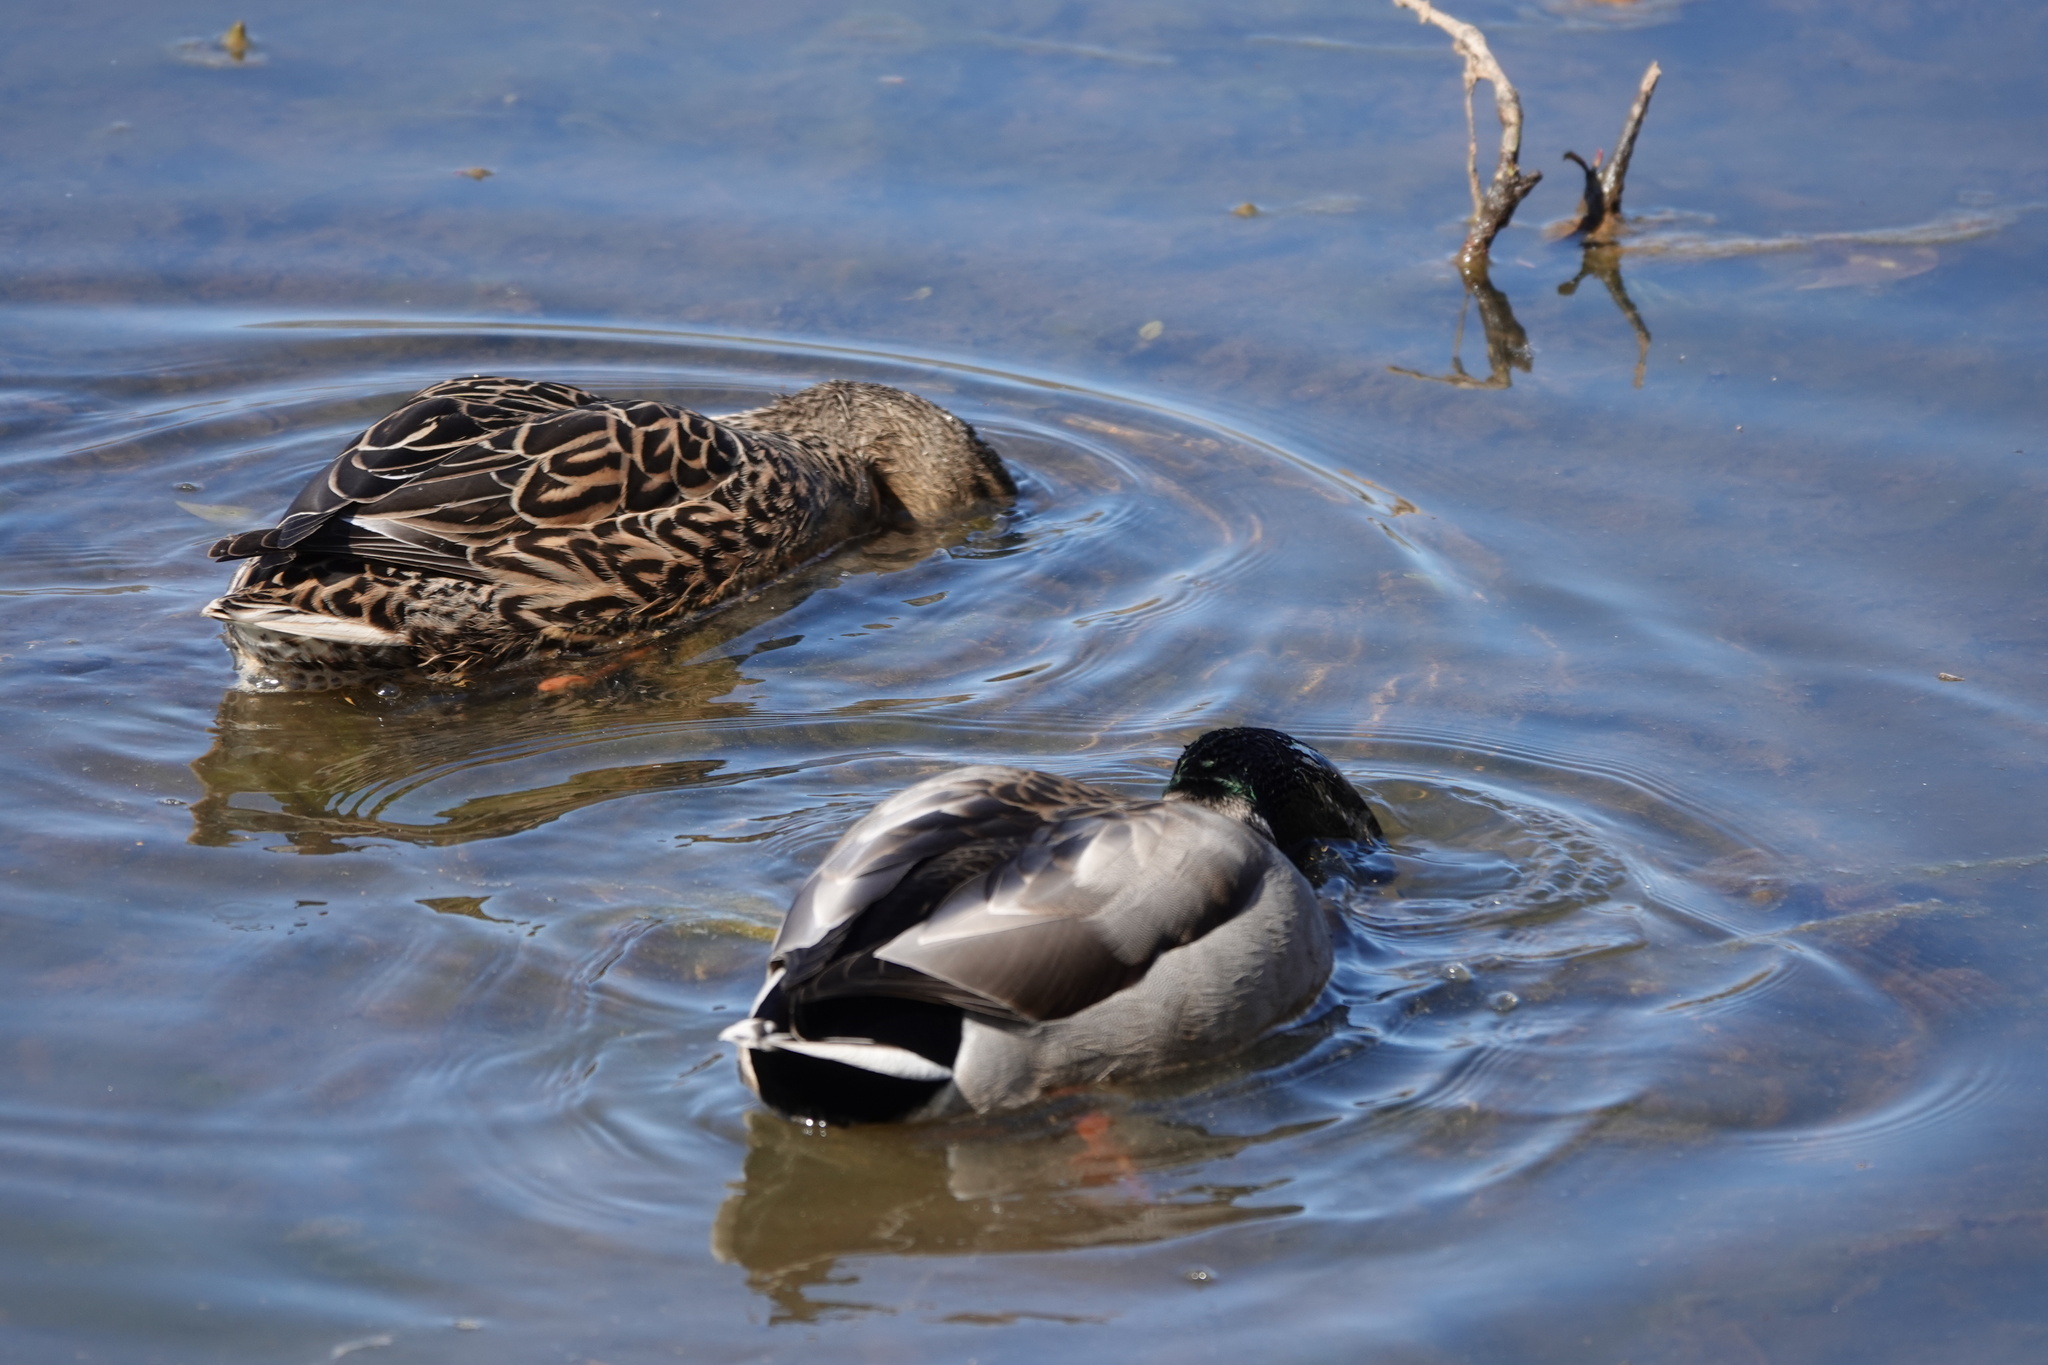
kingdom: Animalia
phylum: Chordata
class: Aves
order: Anseriformes
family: Anatidae
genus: Anas
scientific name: Anas platyrhynchos
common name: Mallard
